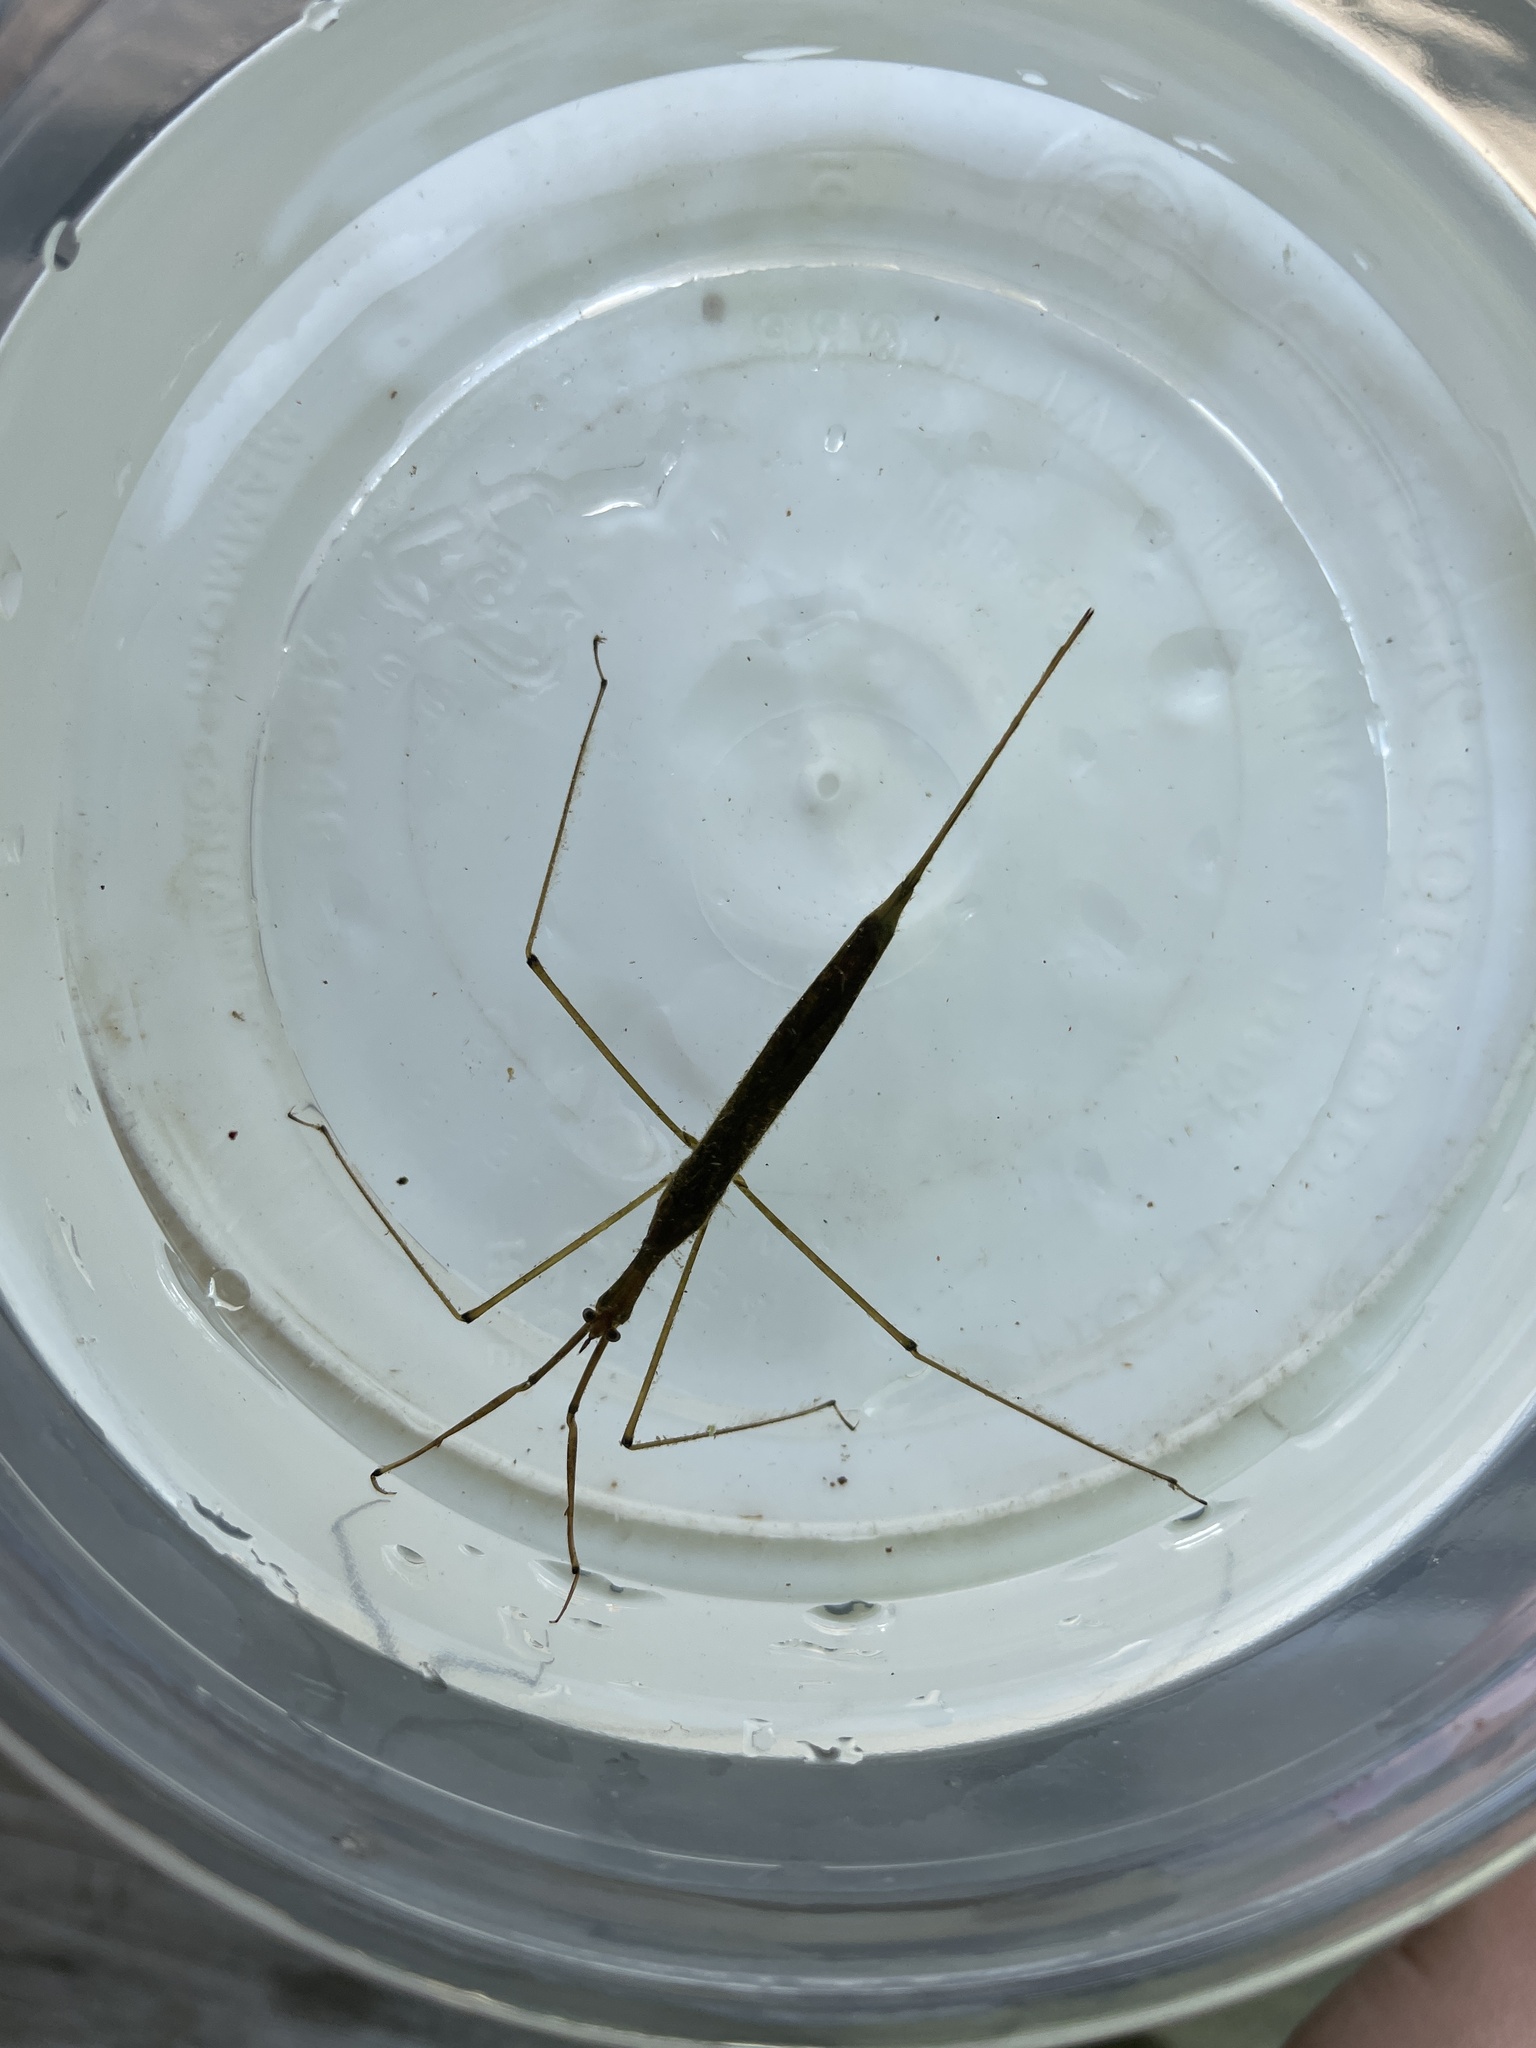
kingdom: Animalia
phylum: Arthropoda
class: Insecta
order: Hemiptera
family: Nepidae
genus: Ranatra
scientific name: Ranatra
